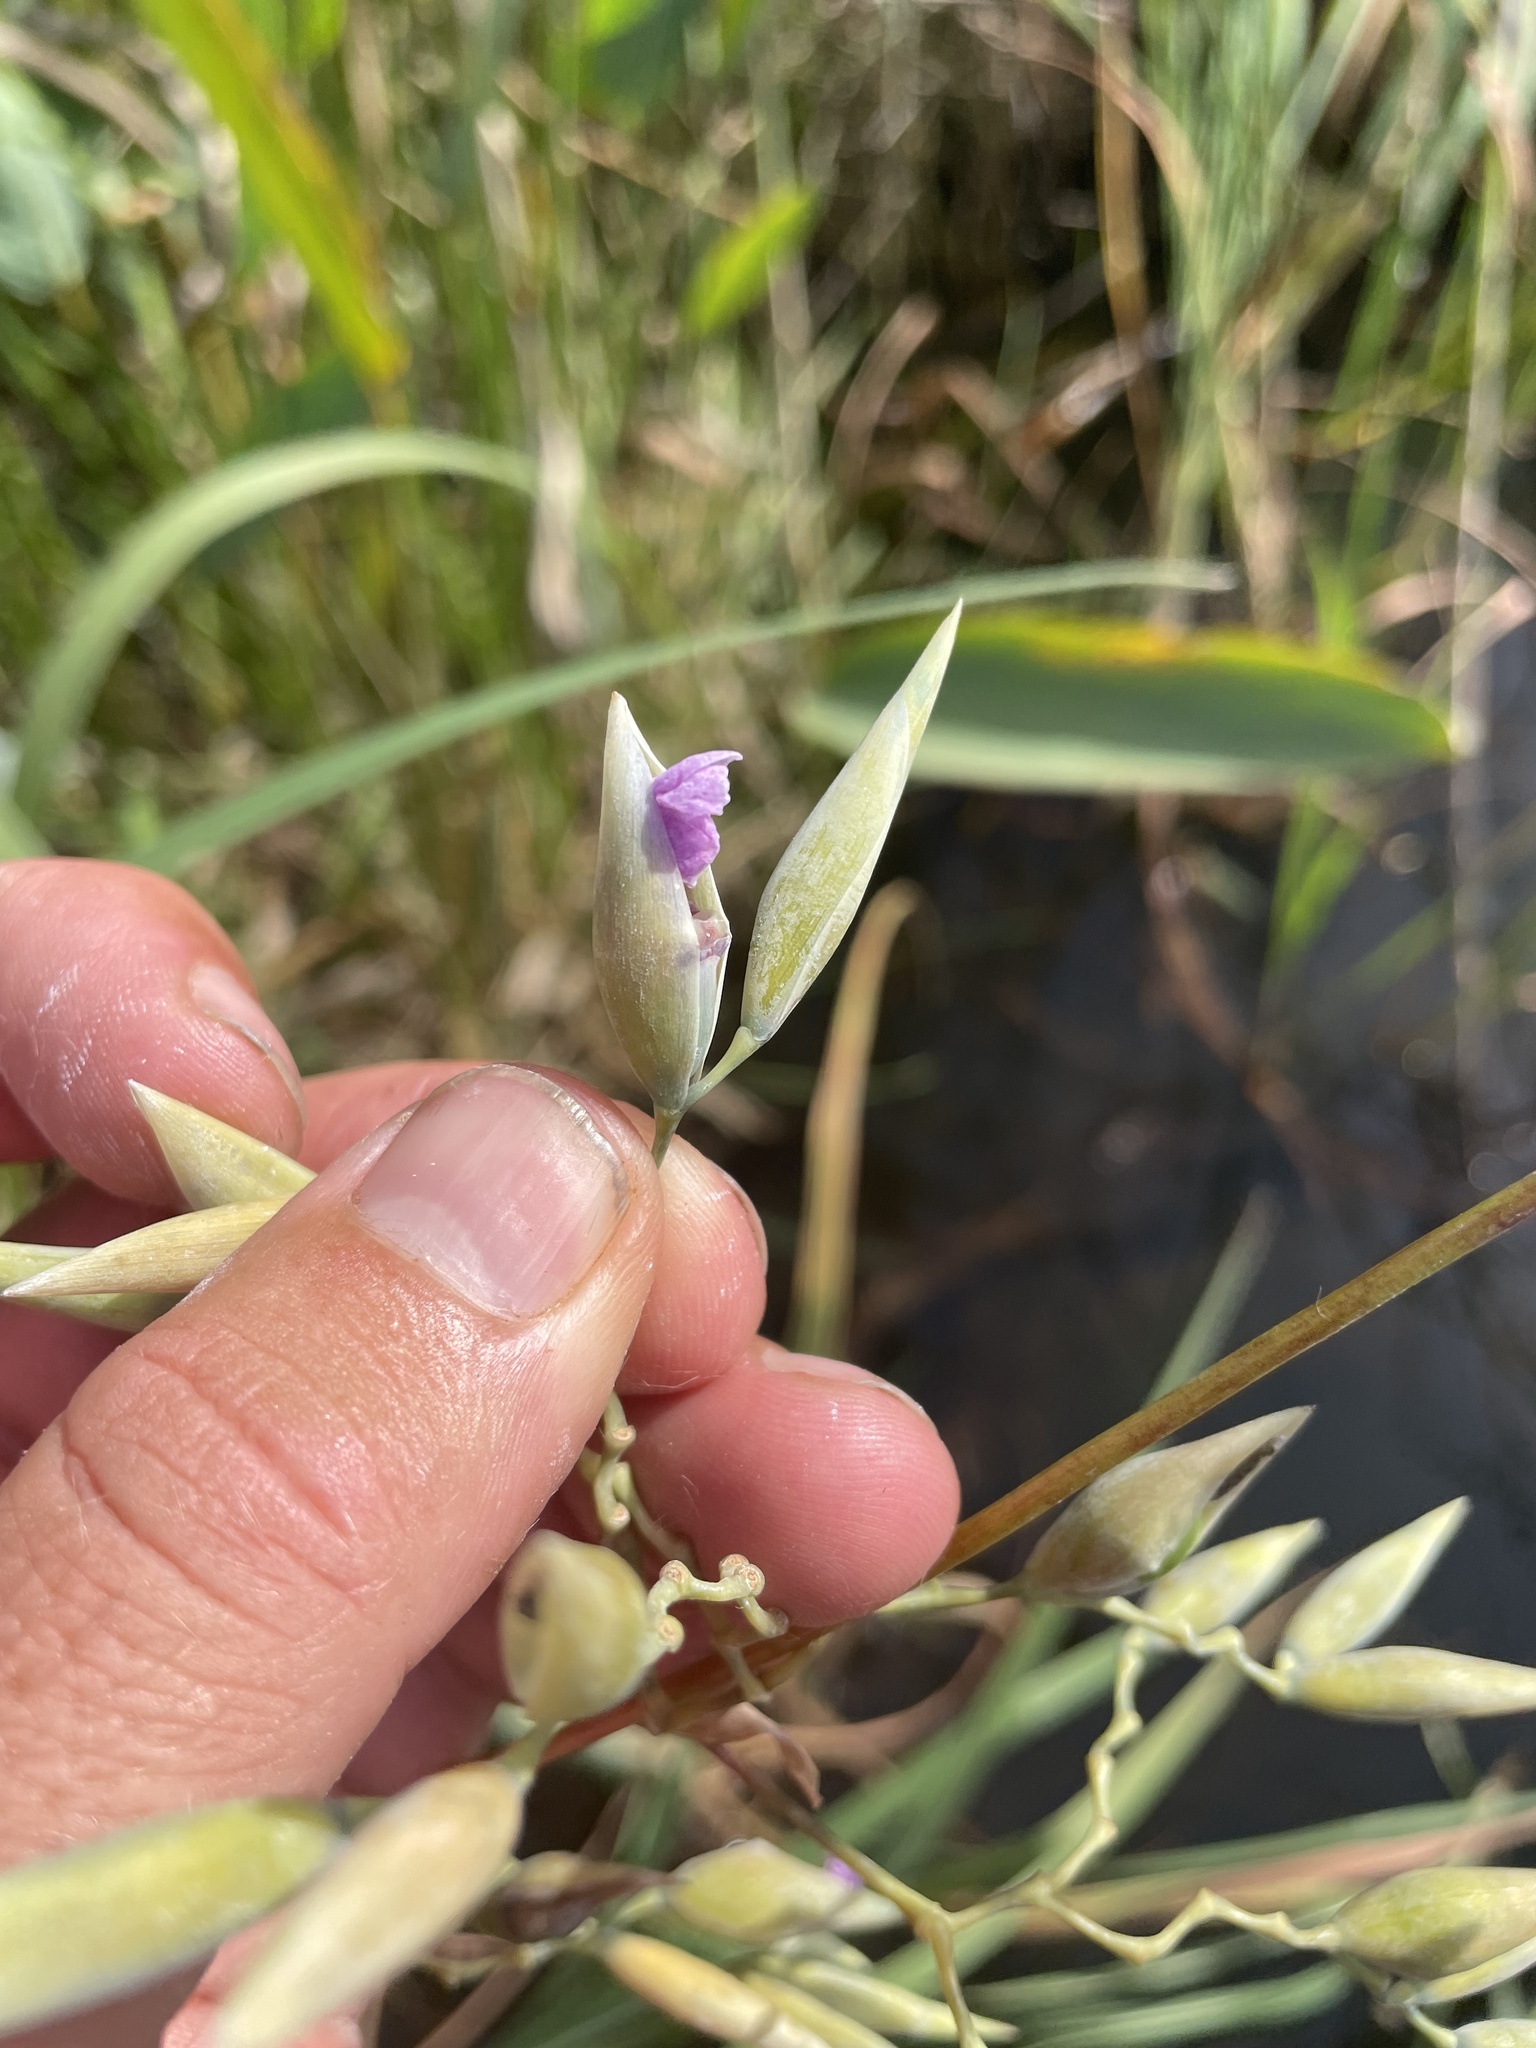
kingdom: Plantae
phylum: Tracheophyta
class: Liliopsida
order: Zingiberales
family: Marantaceae
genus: Thalia
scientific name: Thalia geniculata
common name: Arrowroot
